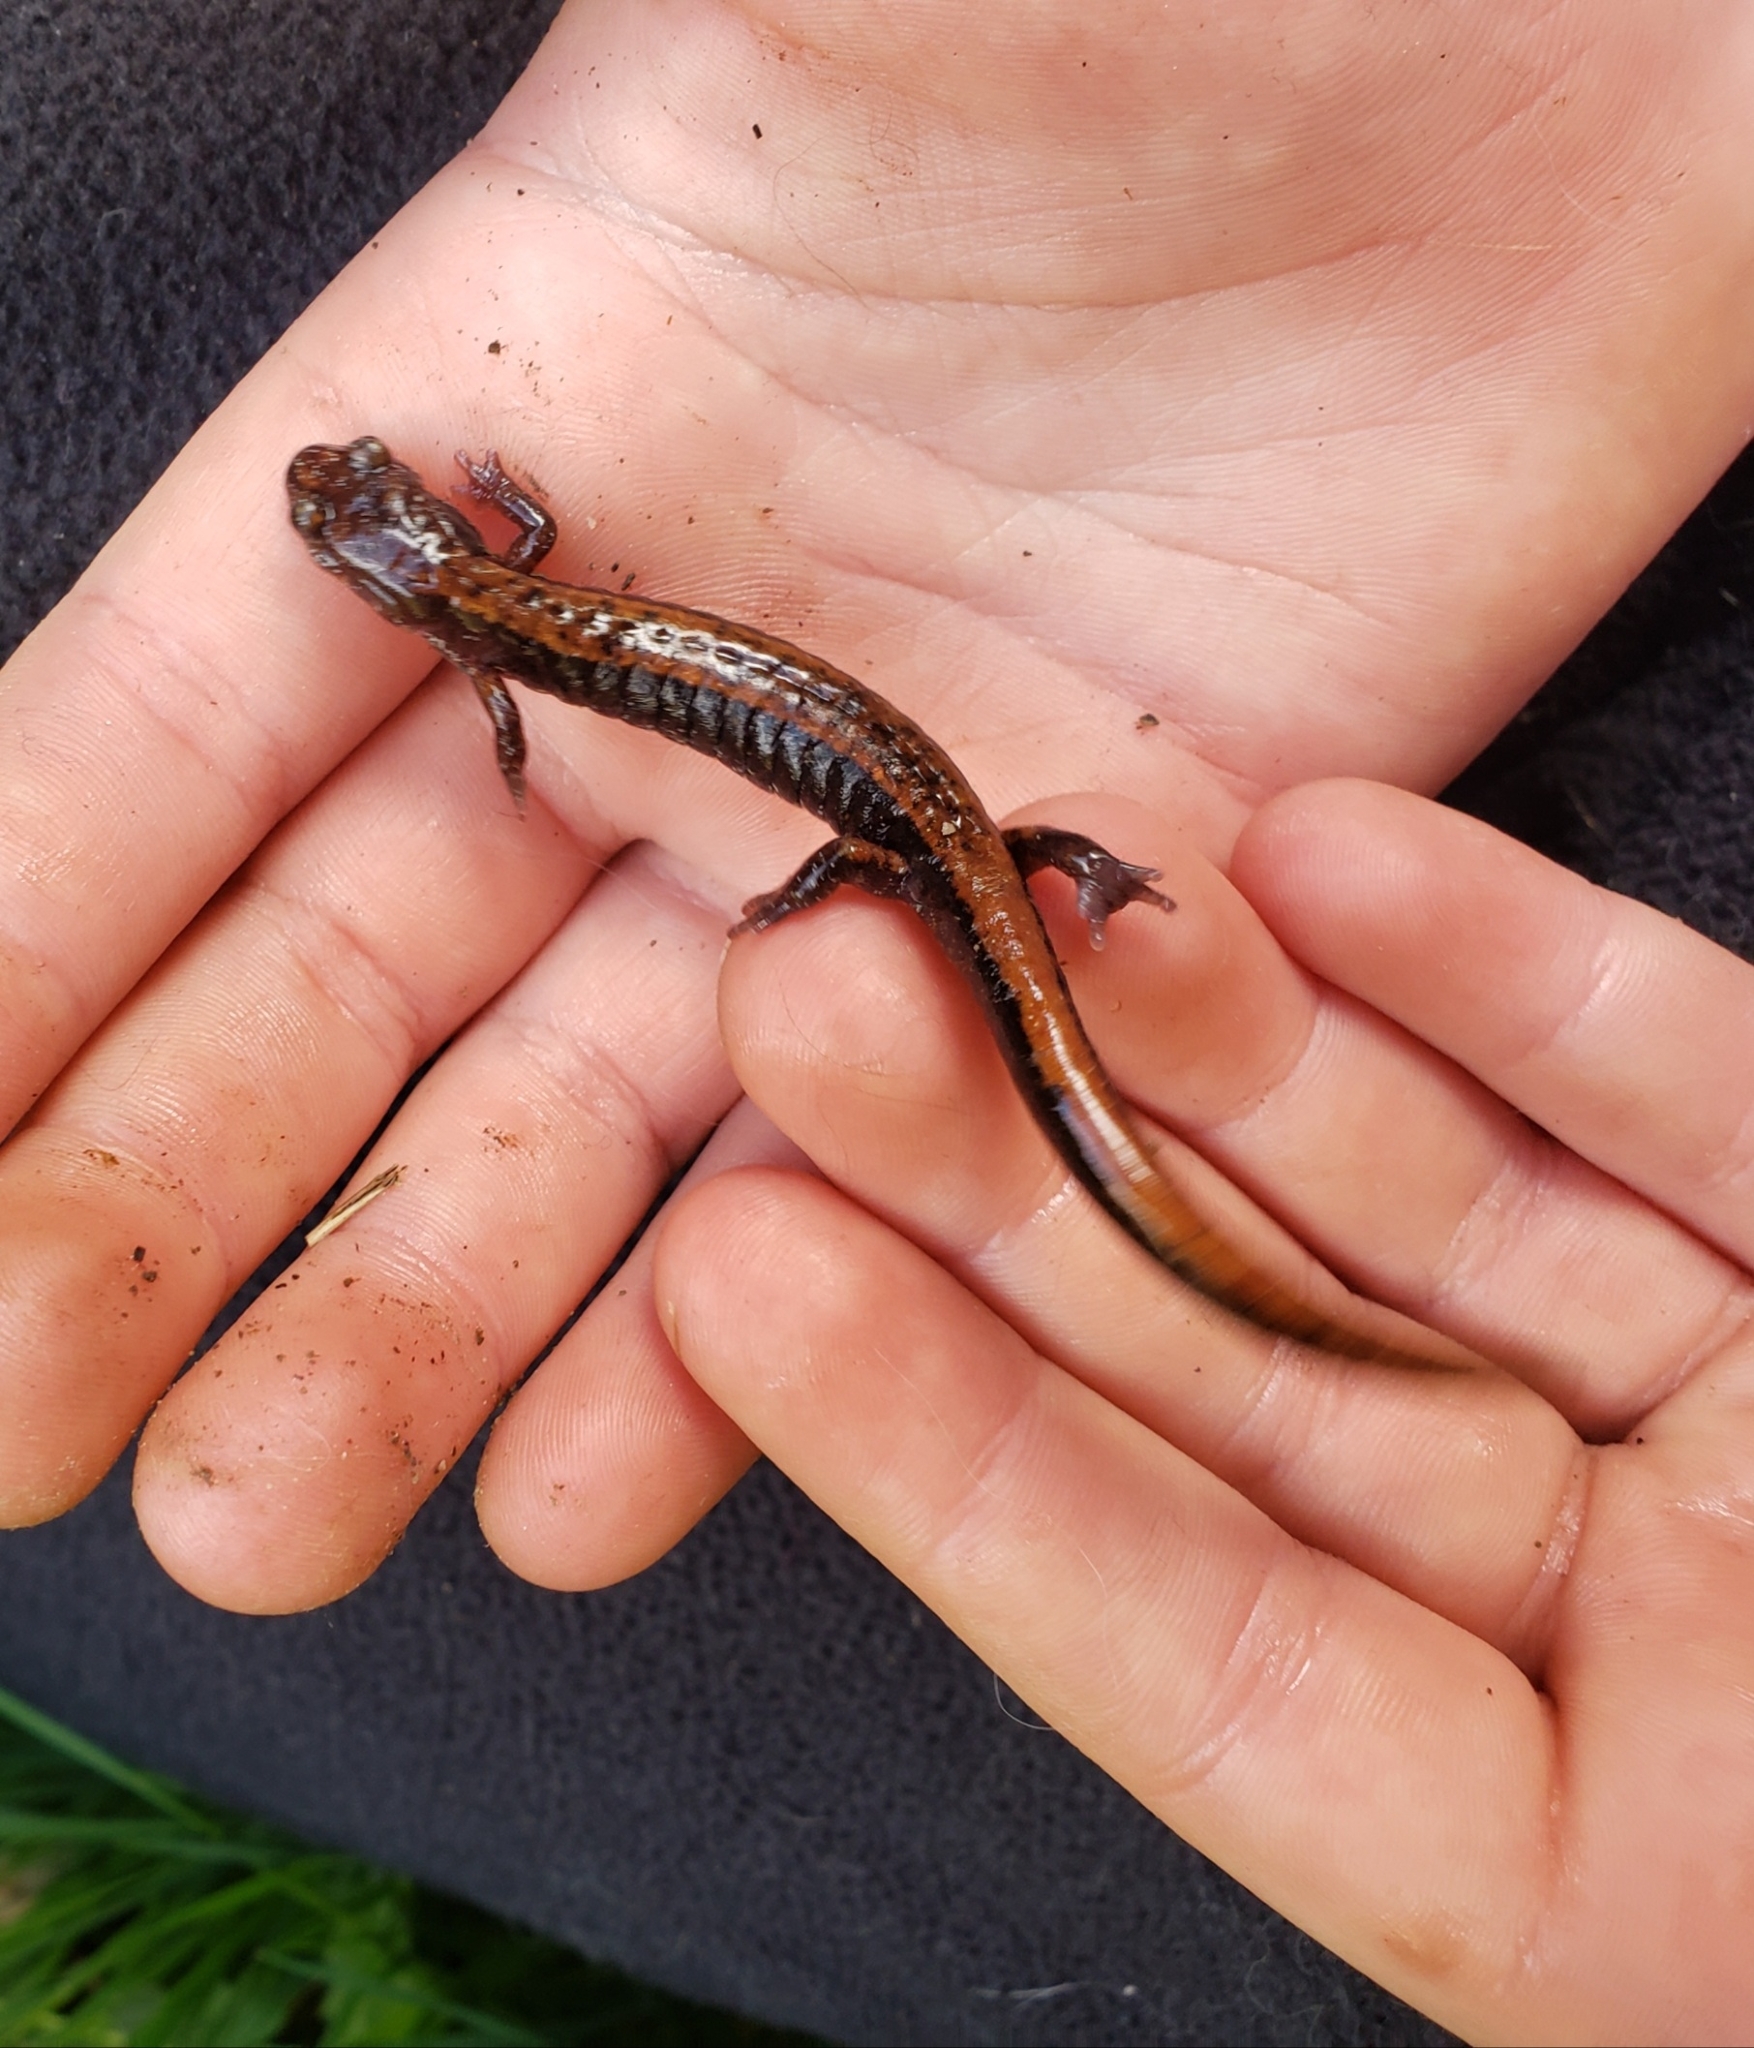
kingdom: Animalia
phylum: Chordata
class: Amphibia
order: Caudata
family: Plethodontidae
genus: Plethodon
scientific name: Plethodon vehiculum
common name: Western red-backed salamander
